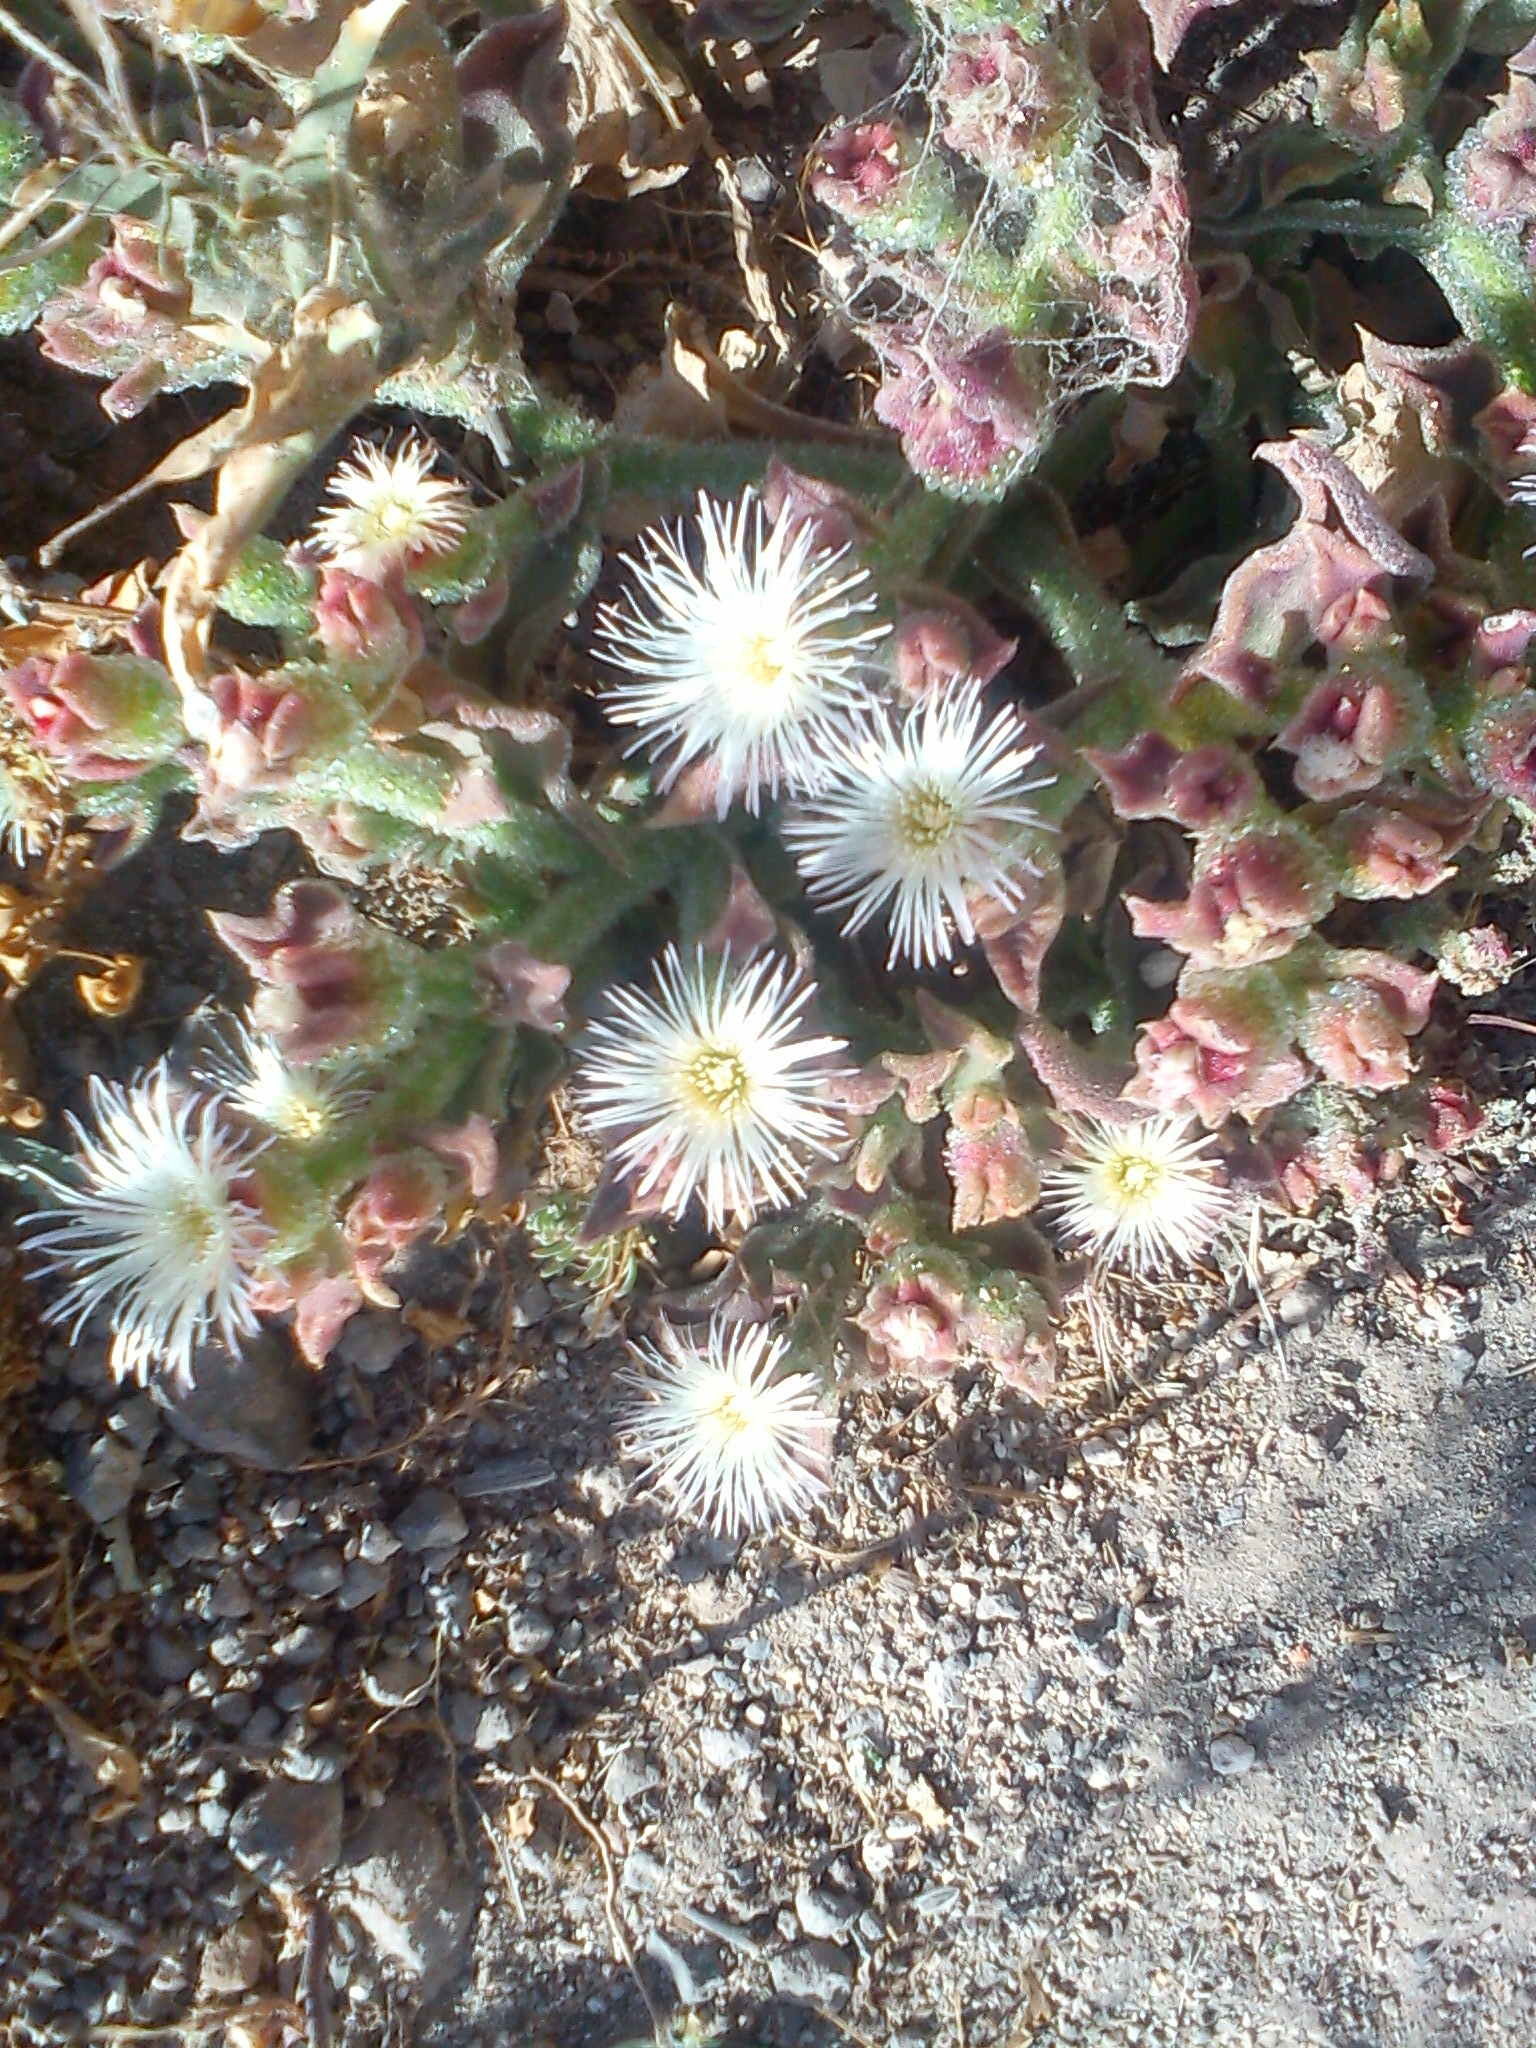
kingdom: Plantae
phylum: Tracheophyta
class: Magnoliopsida
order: Caryophyllales
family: Aizoaceae
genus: Mesembryanthemum
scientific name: Mesembryanthemum crystallinum
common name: Common iceplant
